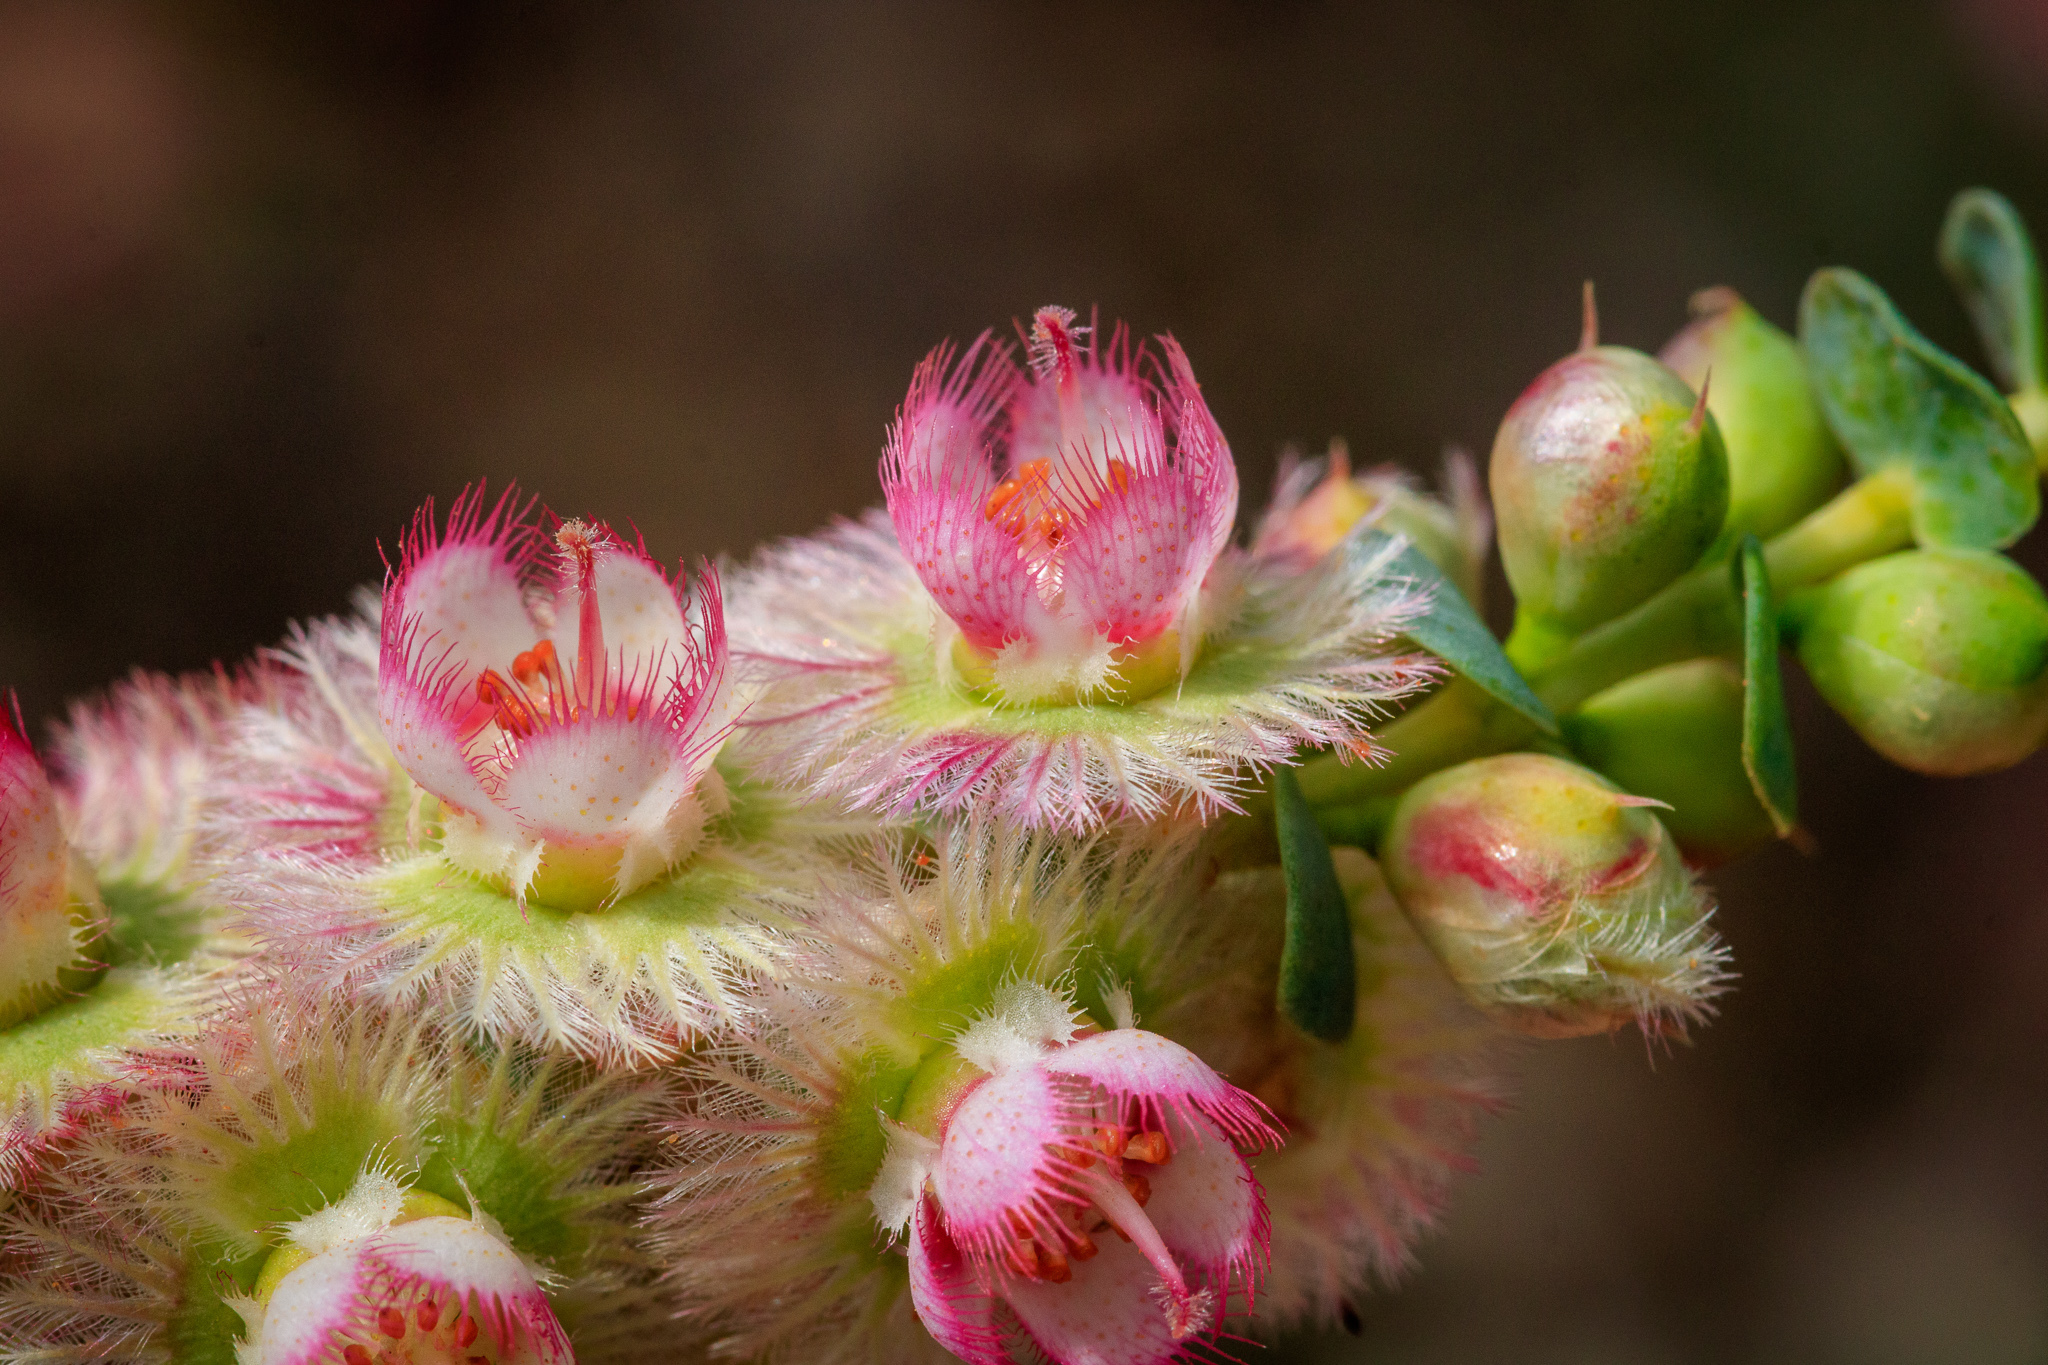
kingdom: Plantae
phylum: Tracheophyta
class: Magnoliopsida
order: Myrtales
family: Myrtaceae
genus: Verticordia
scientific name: Verticordia chrysostachys
